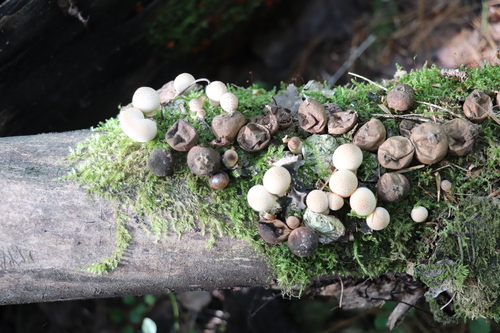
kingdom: Fungi
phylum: Basidiomycota
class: Agaricomycetes
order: Agaricales
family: Lycoperdaceae
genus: Apioperdon
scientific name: Apioperdon pyriforme
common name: Pear-shaped puffball
